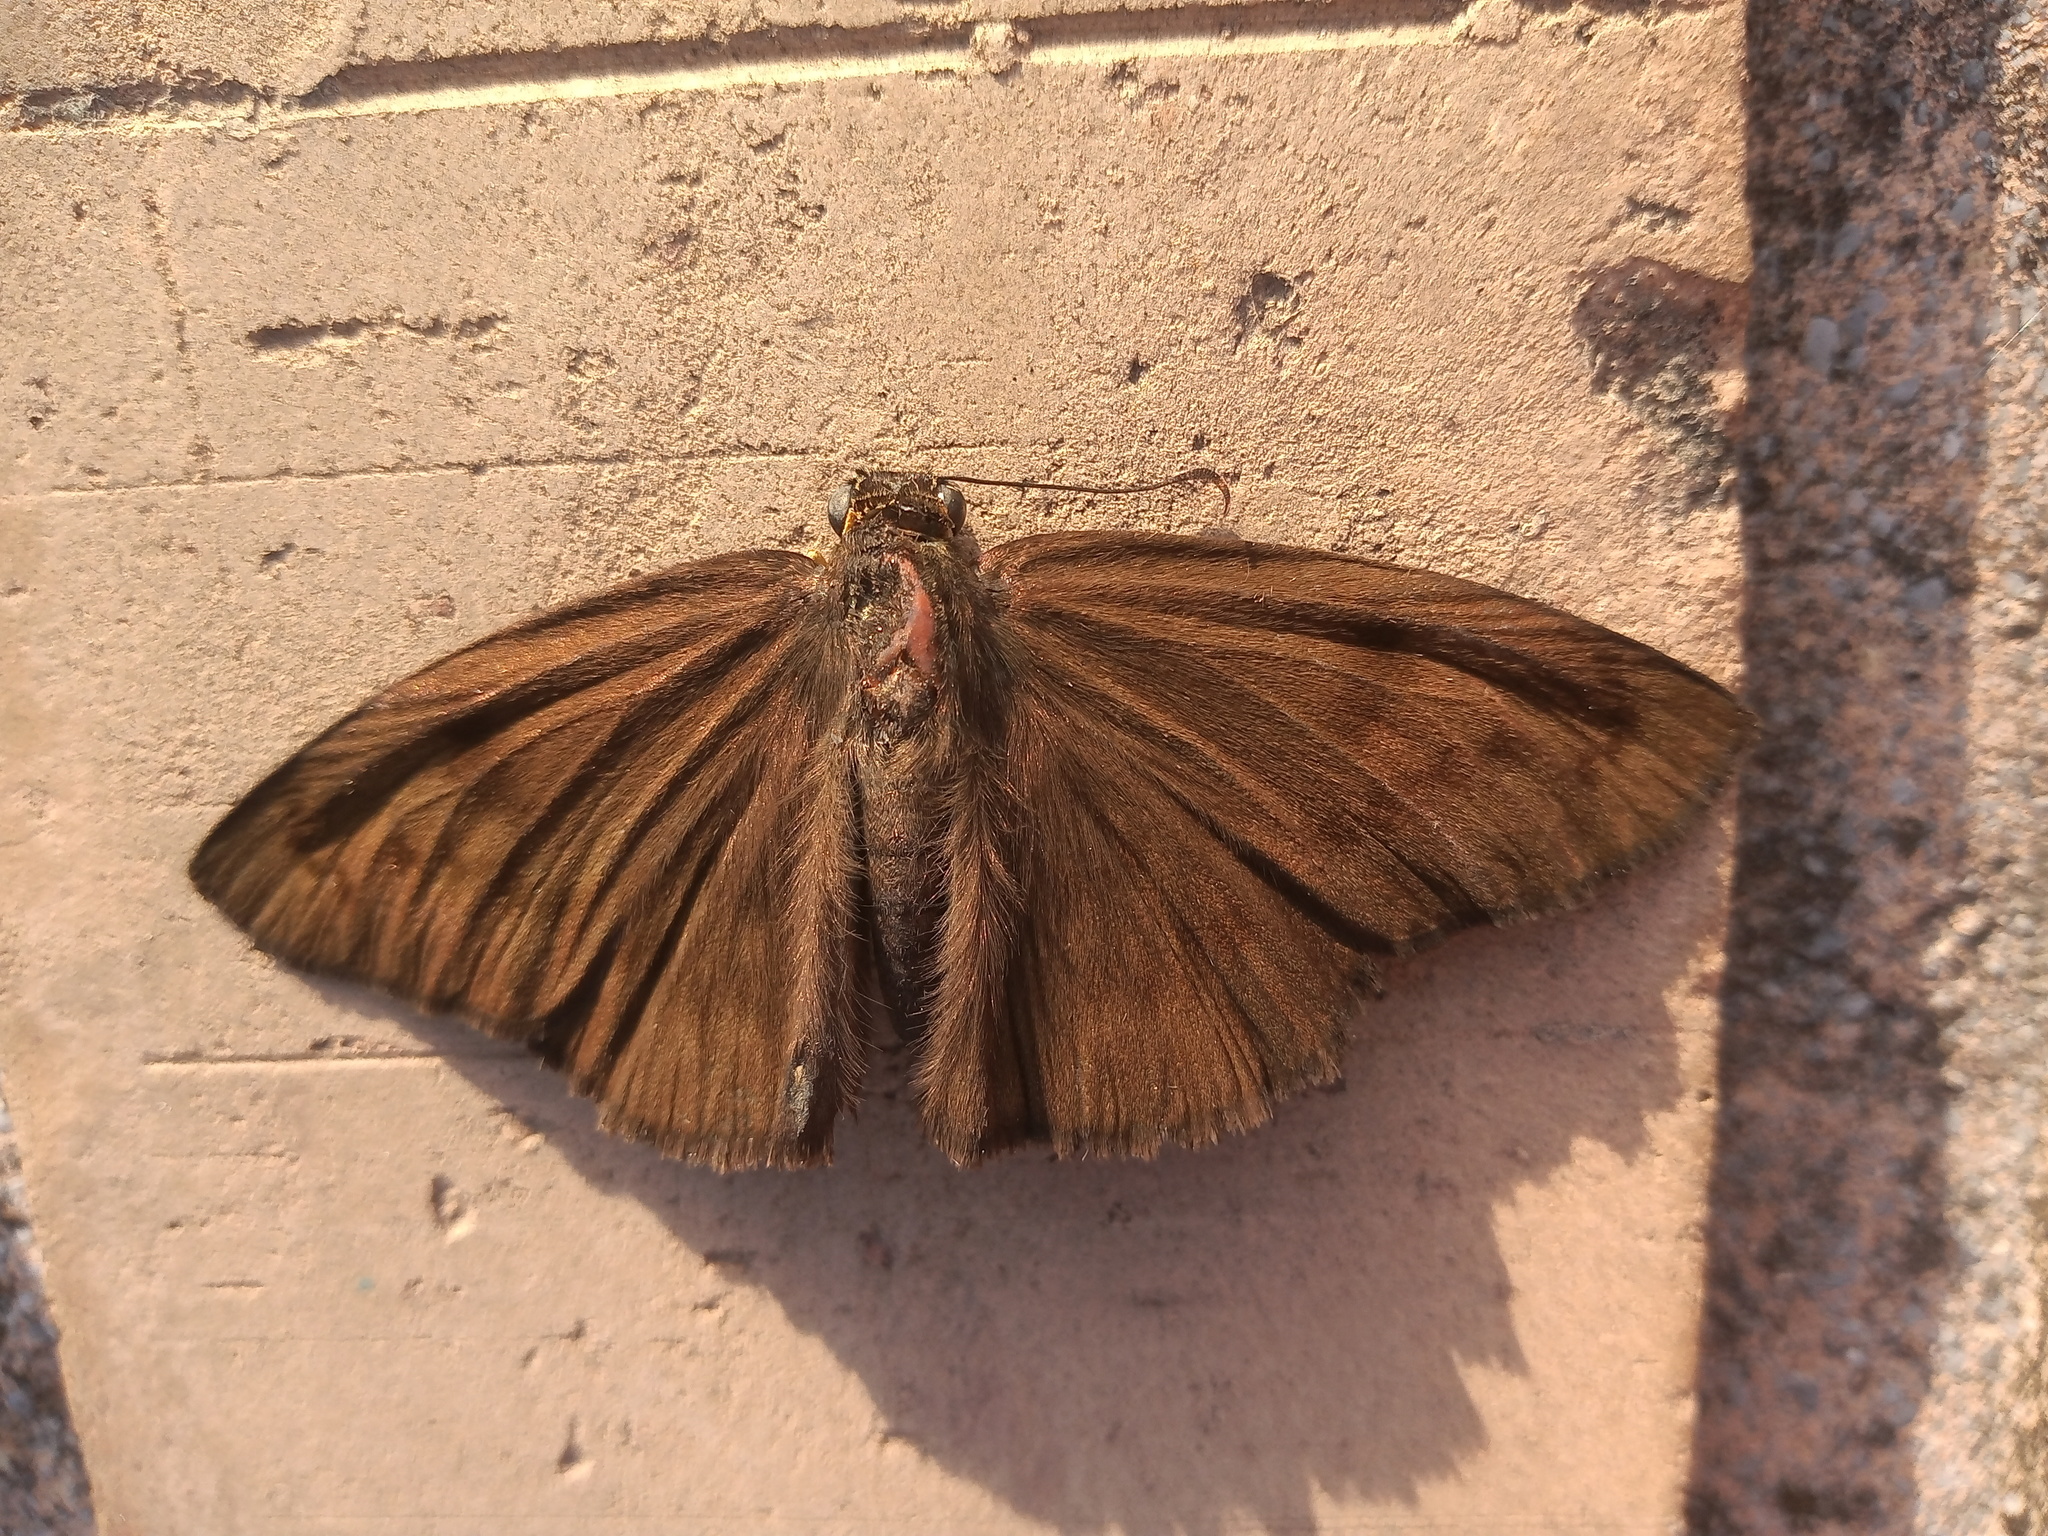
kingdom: Animalia
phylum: Arthropoda
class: Insecta
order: Lepidoptera
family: Hesperiidae
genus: Grais
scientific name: Grais stigmaticus
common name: Hermit skipper
